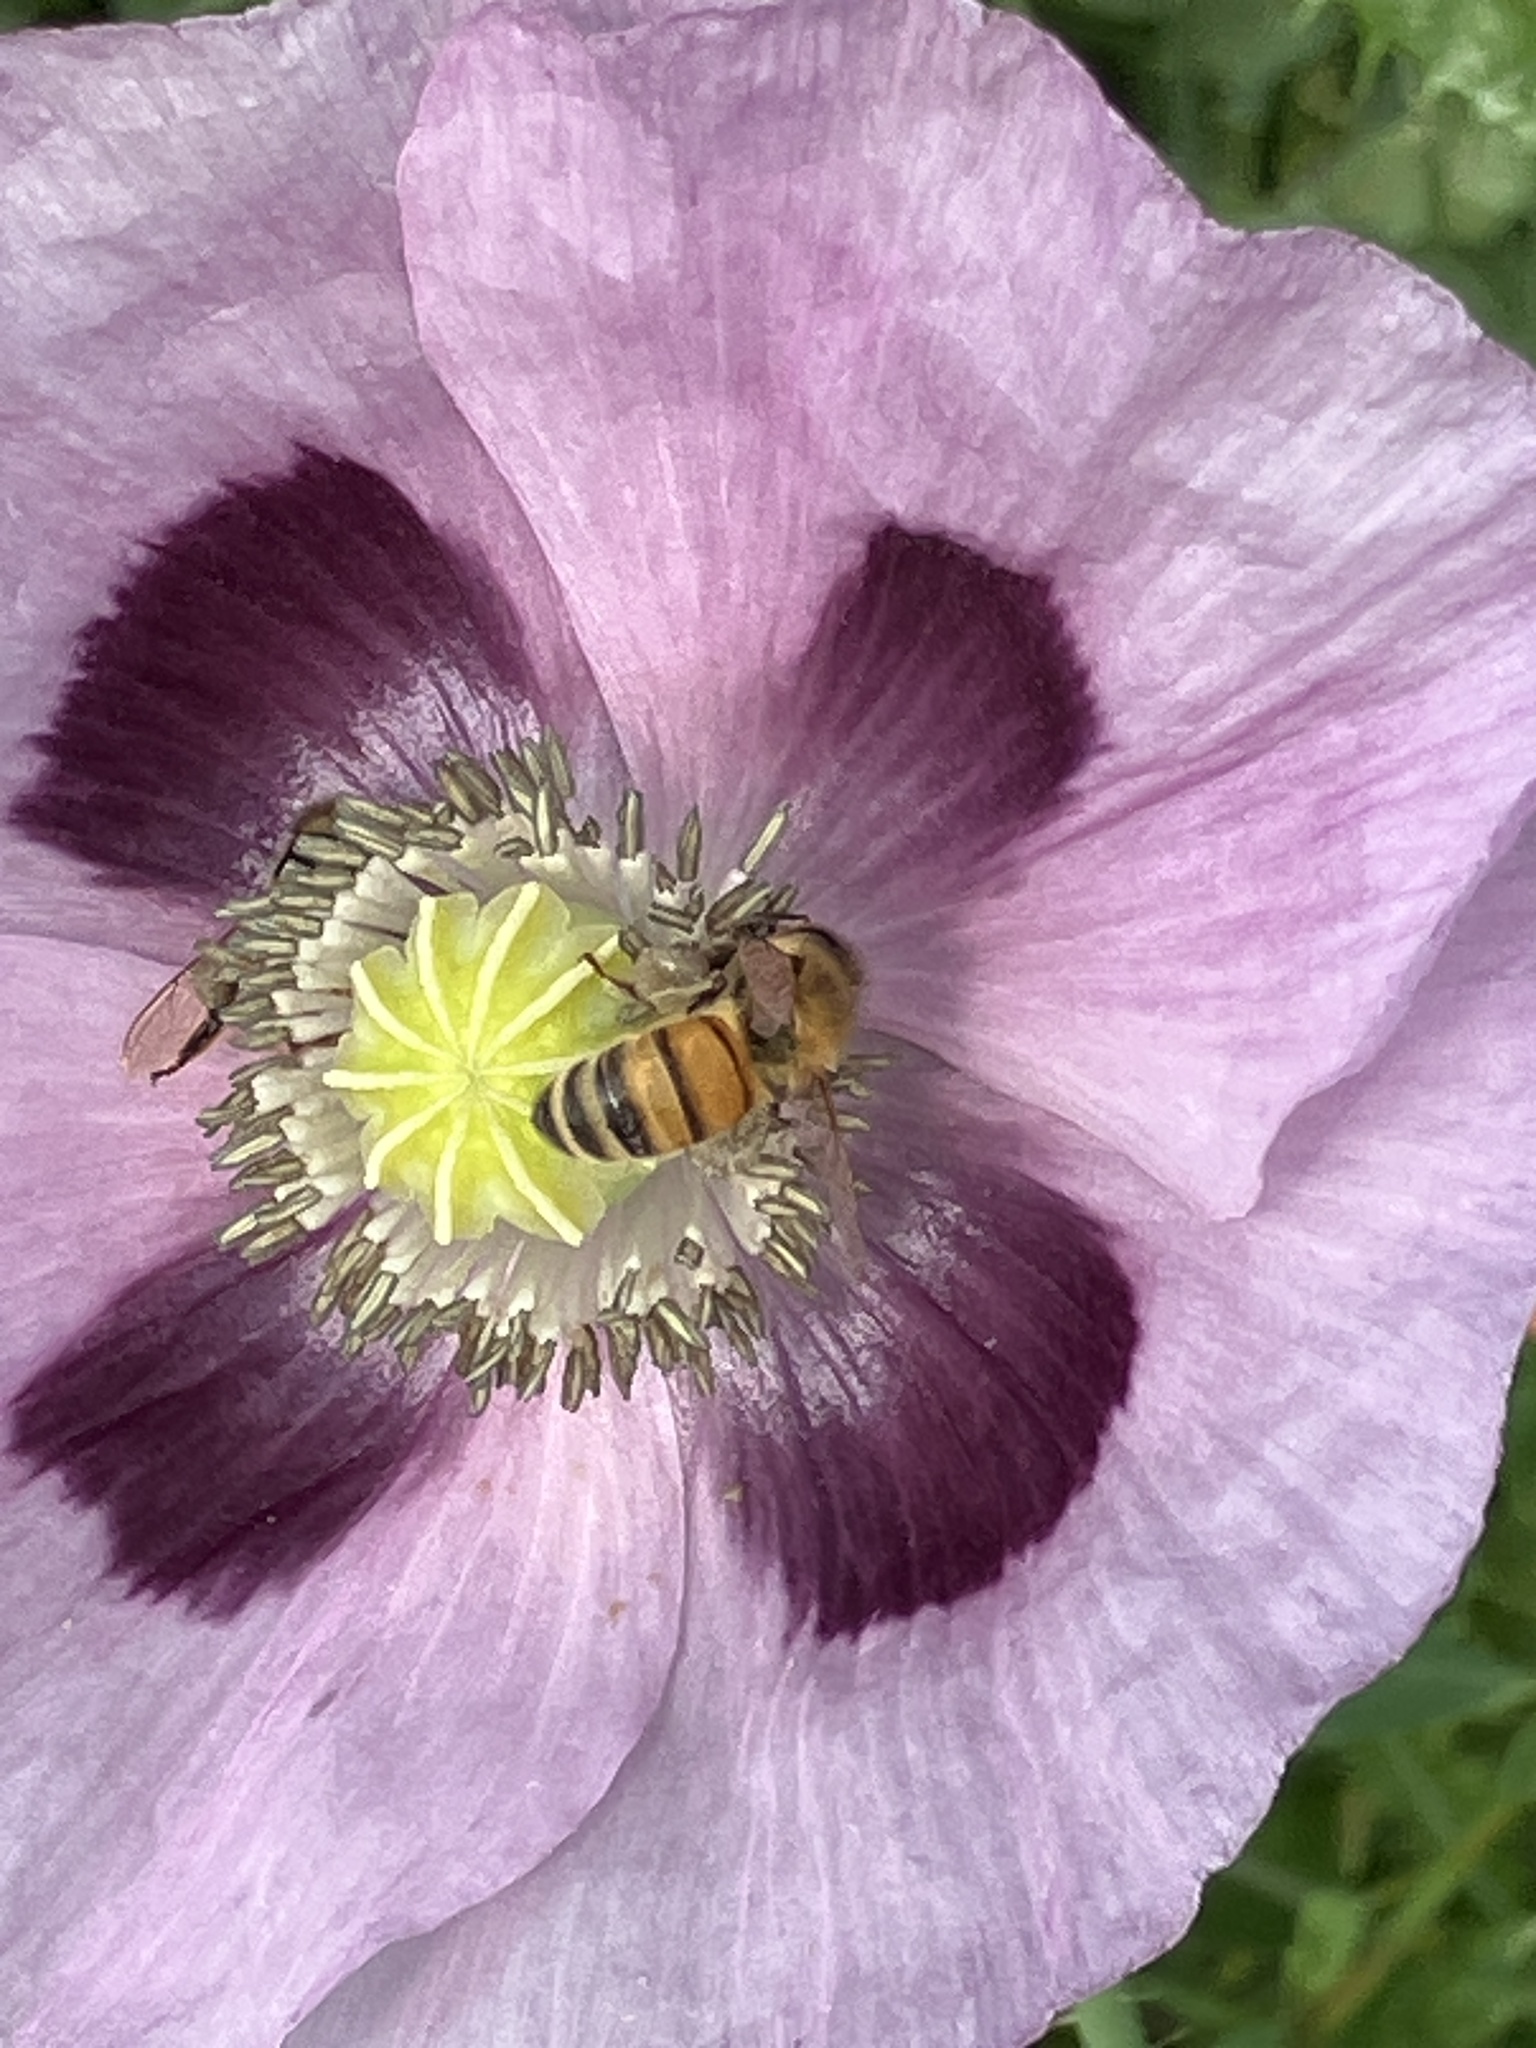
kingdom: Animalia
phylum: Arthropoda
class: Insecta
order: Hymenoptera
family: Apidae
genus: Apis
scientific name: Apis mellifera
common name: Honey bee
